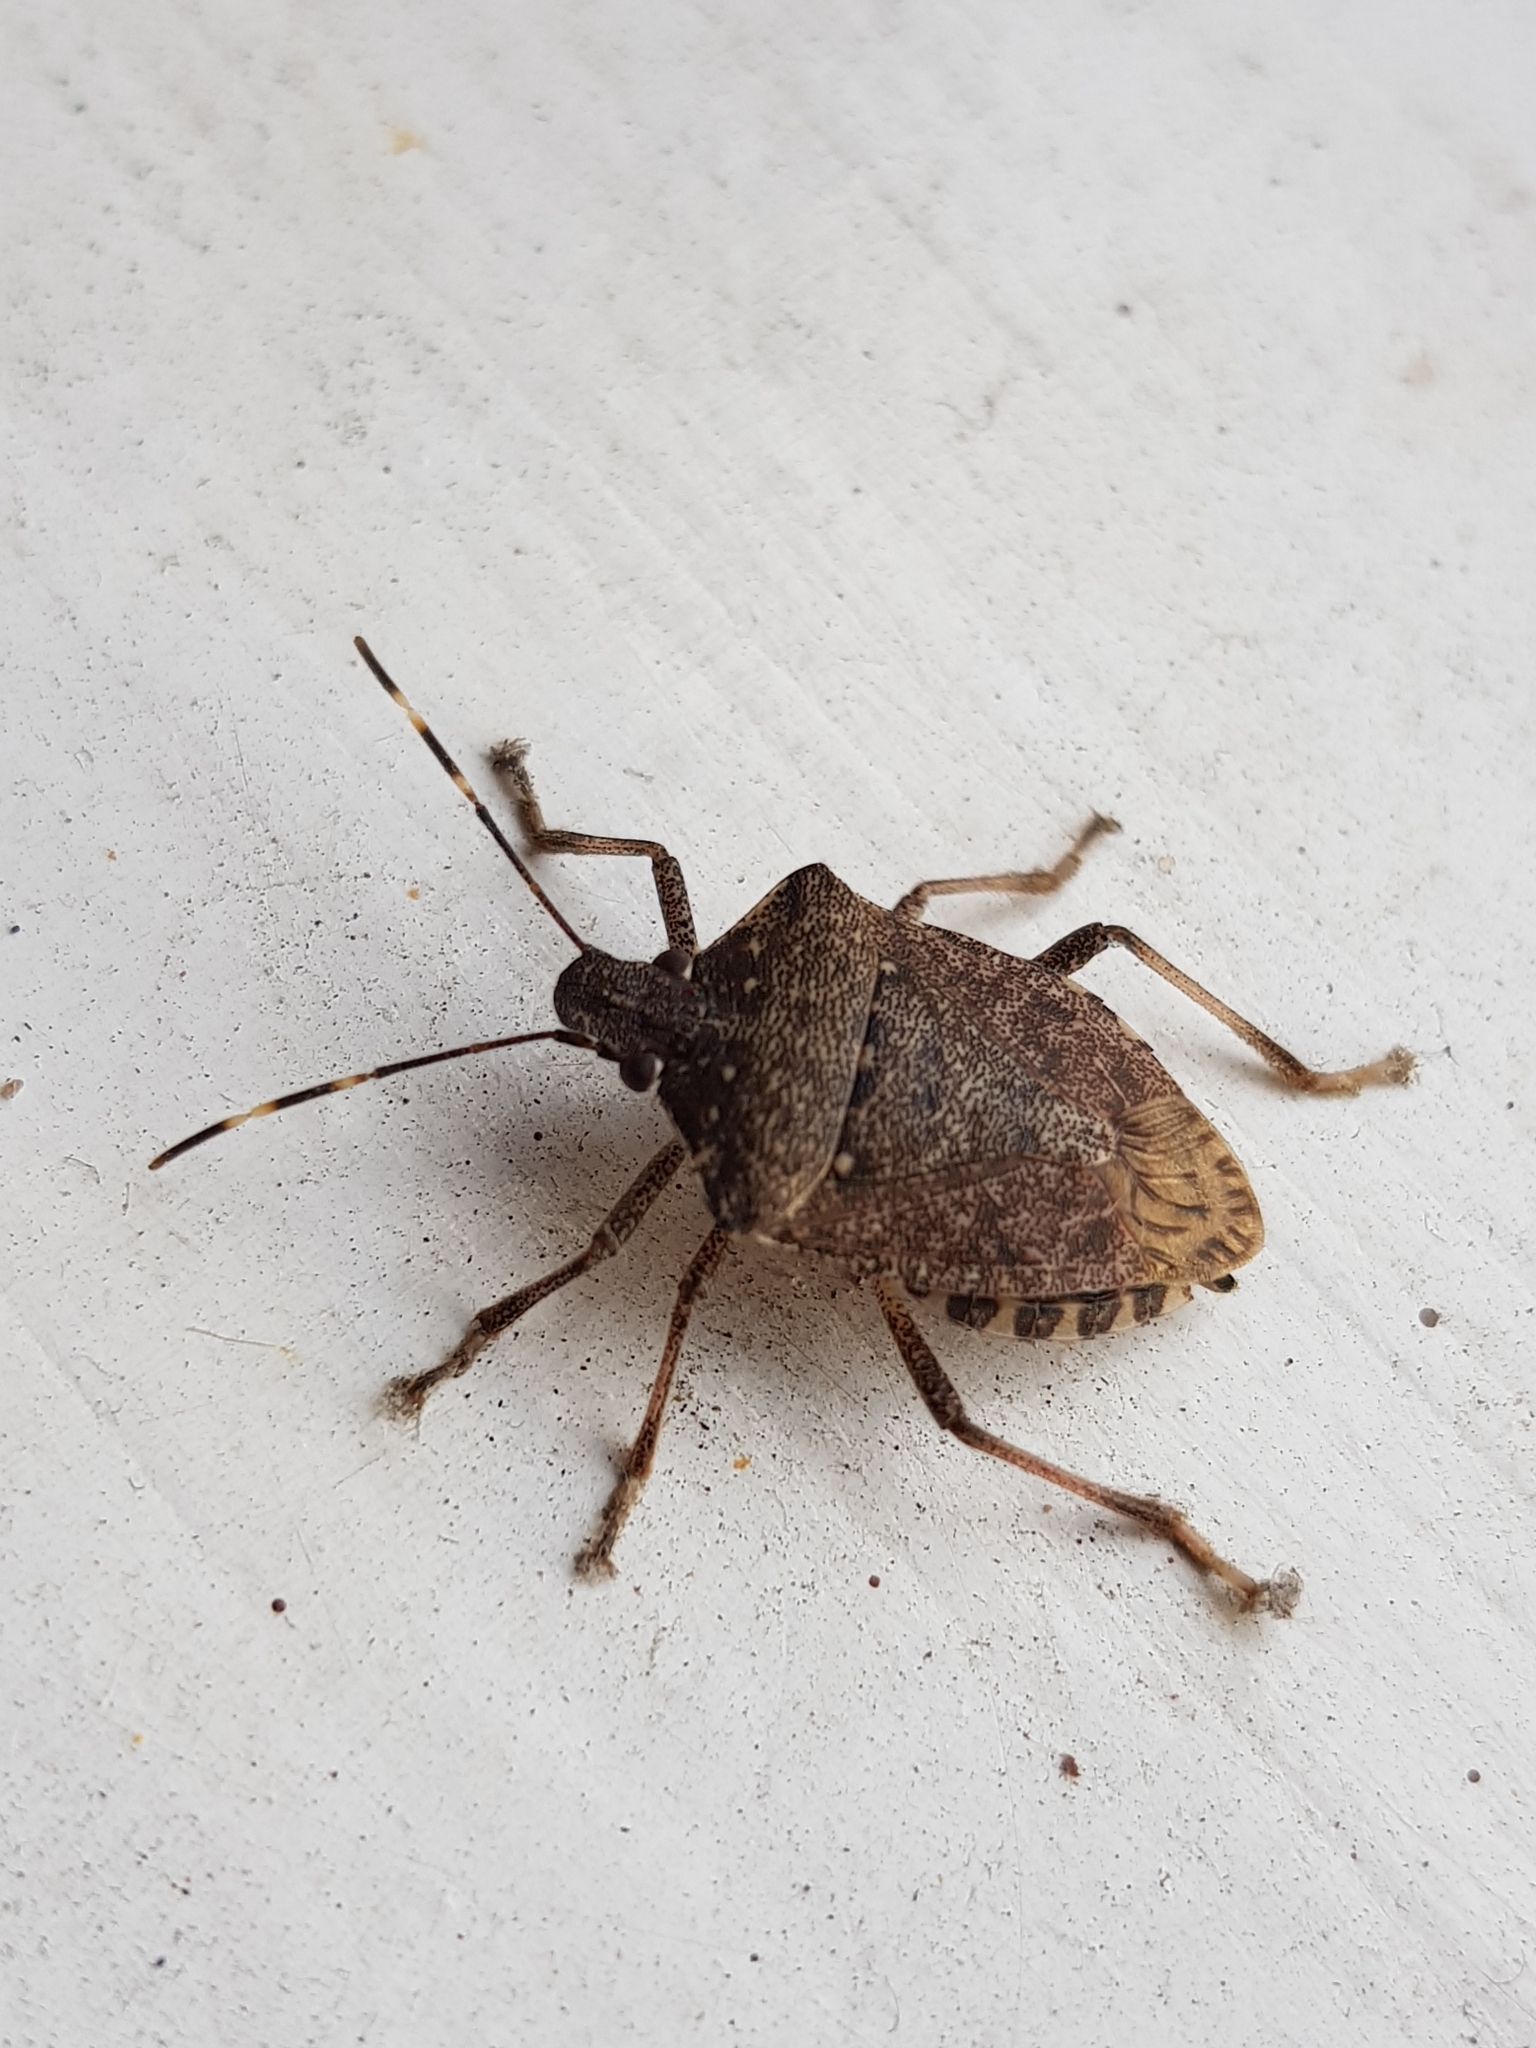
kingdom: Animalia
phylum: Arthropoda
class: Insecta
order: Hemiptera
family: Pentatomidae
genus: Halyomorpha
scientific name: Halyomorpha halys
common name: Brown marmorated stink bug
